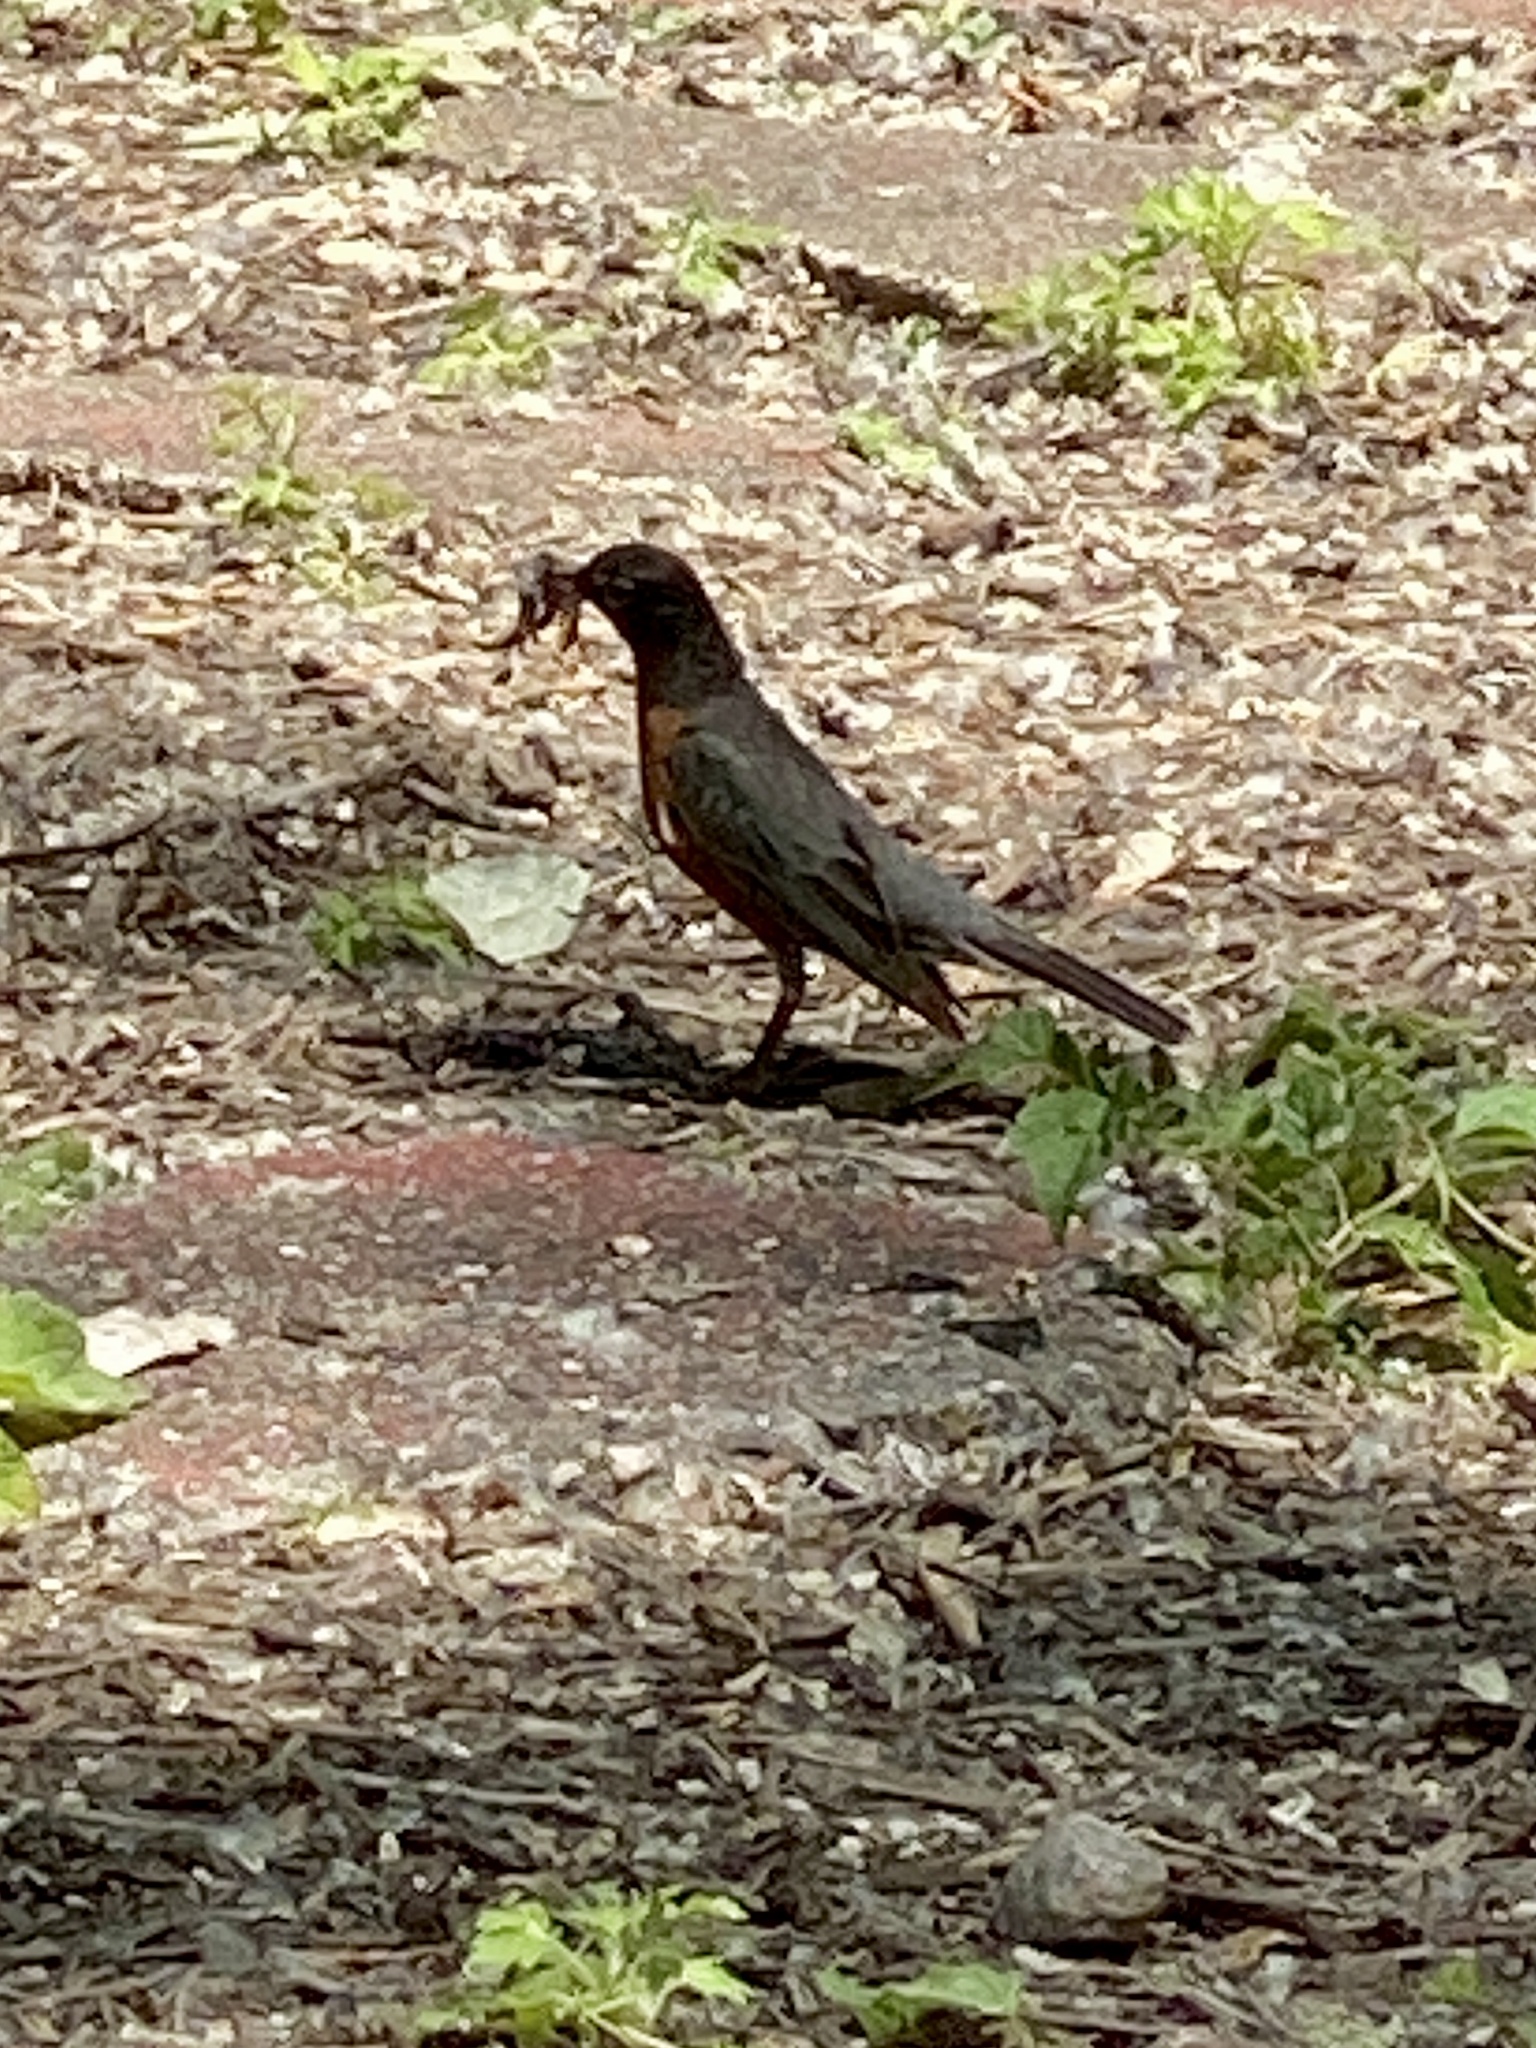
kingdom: Animalia
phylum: Chordata
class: Aves
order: Passeriformes
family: Turdidae
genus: Turdus
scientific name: Turdus migratorius
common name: American robin
